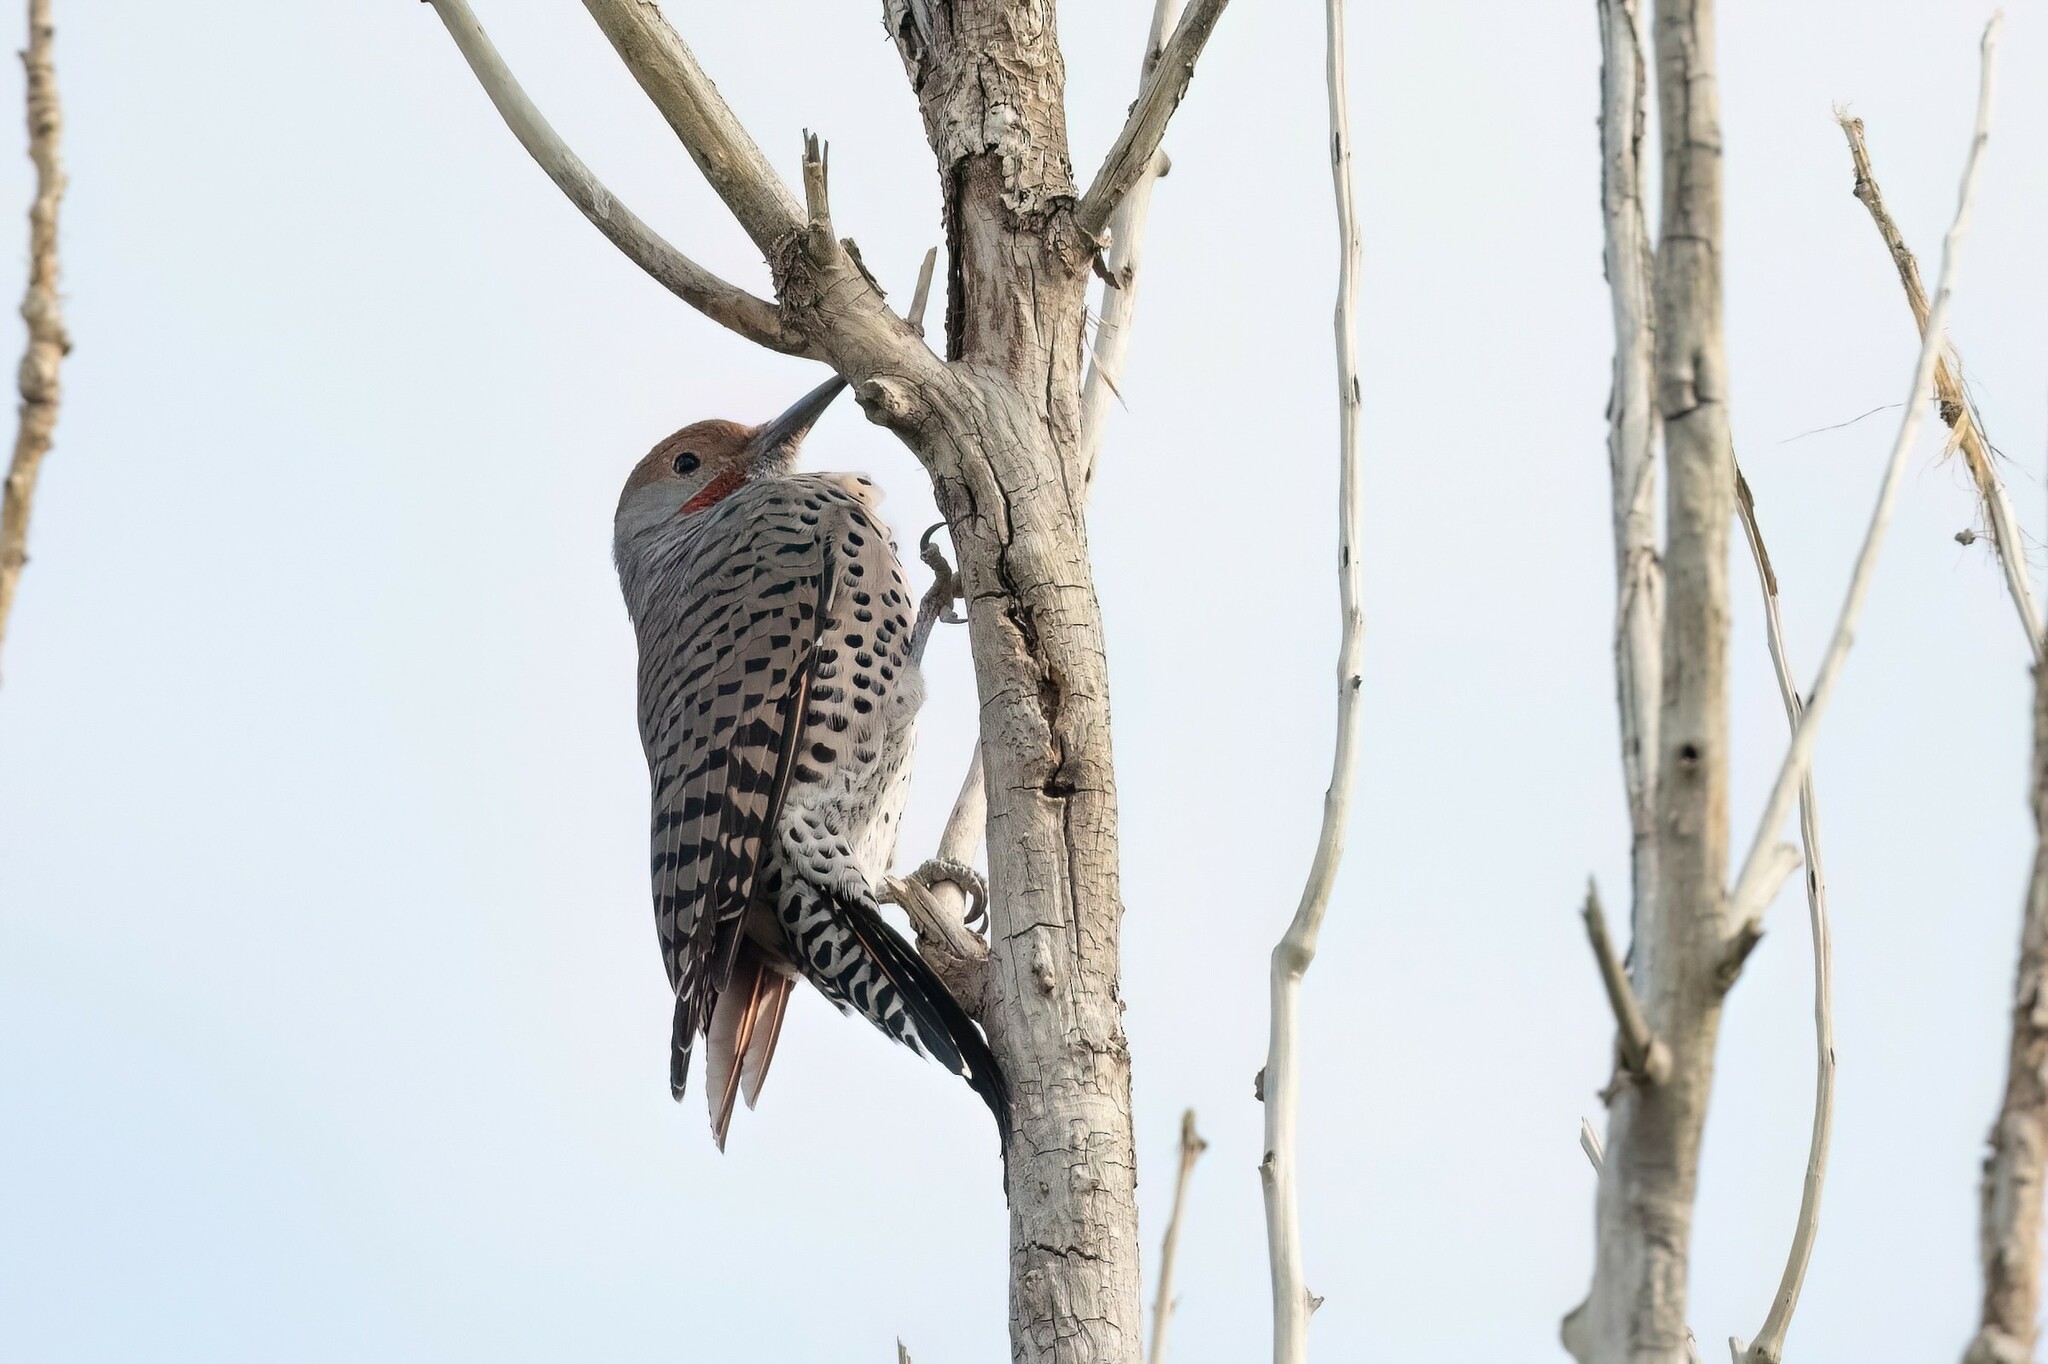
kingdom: Animalia
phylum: Chordata
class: Aves
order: Piciformes
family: Picidae
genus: Colaptes
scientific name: Colaptes auratus
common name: Northern flicker
